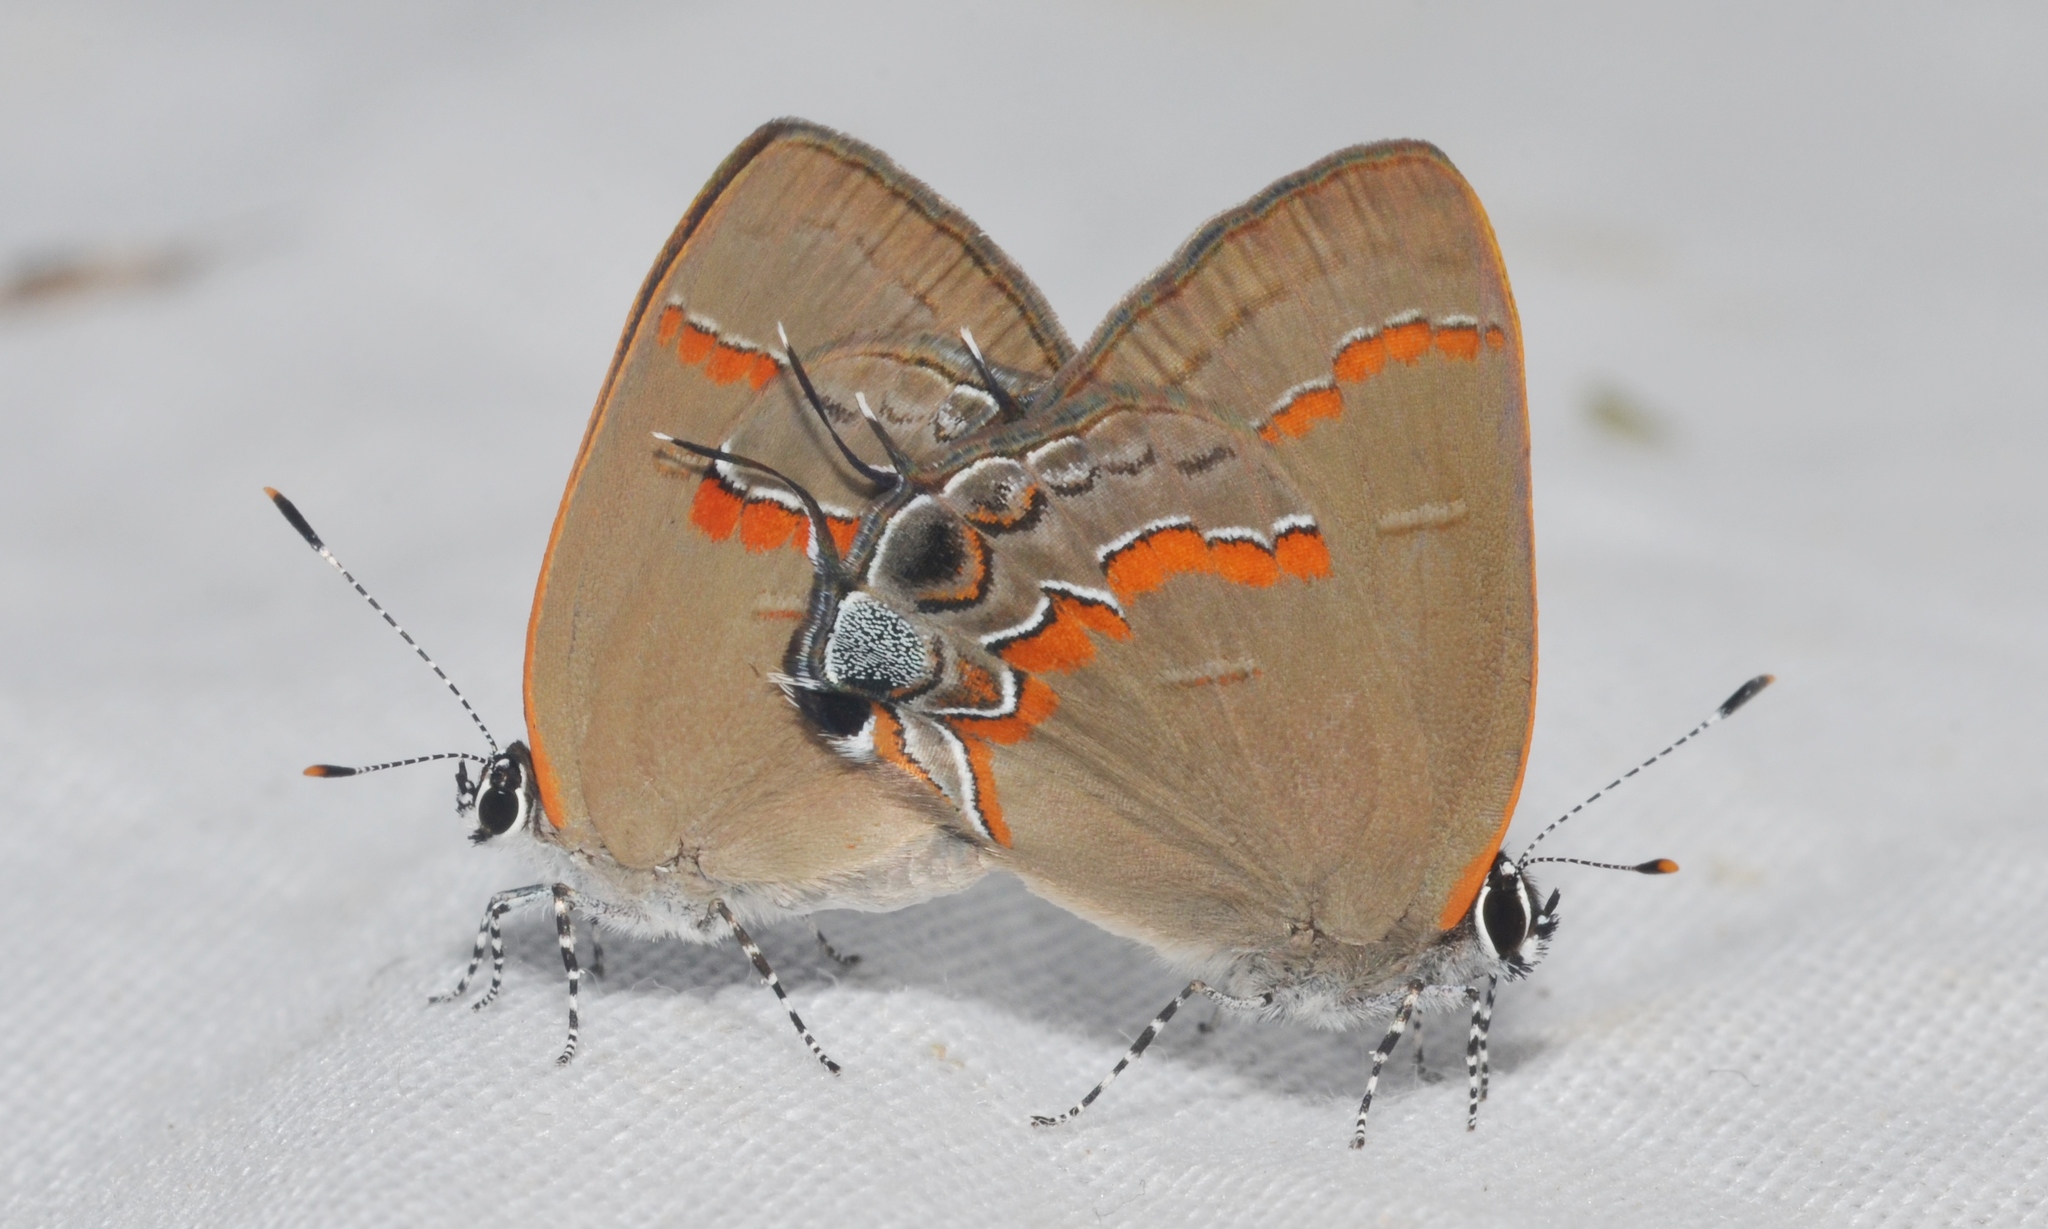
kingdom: Animalia
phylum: Arthropoda
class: Insecta
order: Lepidoptera
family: Lycaenidae
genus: Calycopis
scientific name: Calycopis cecrops
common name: Red-banded hairstreak
